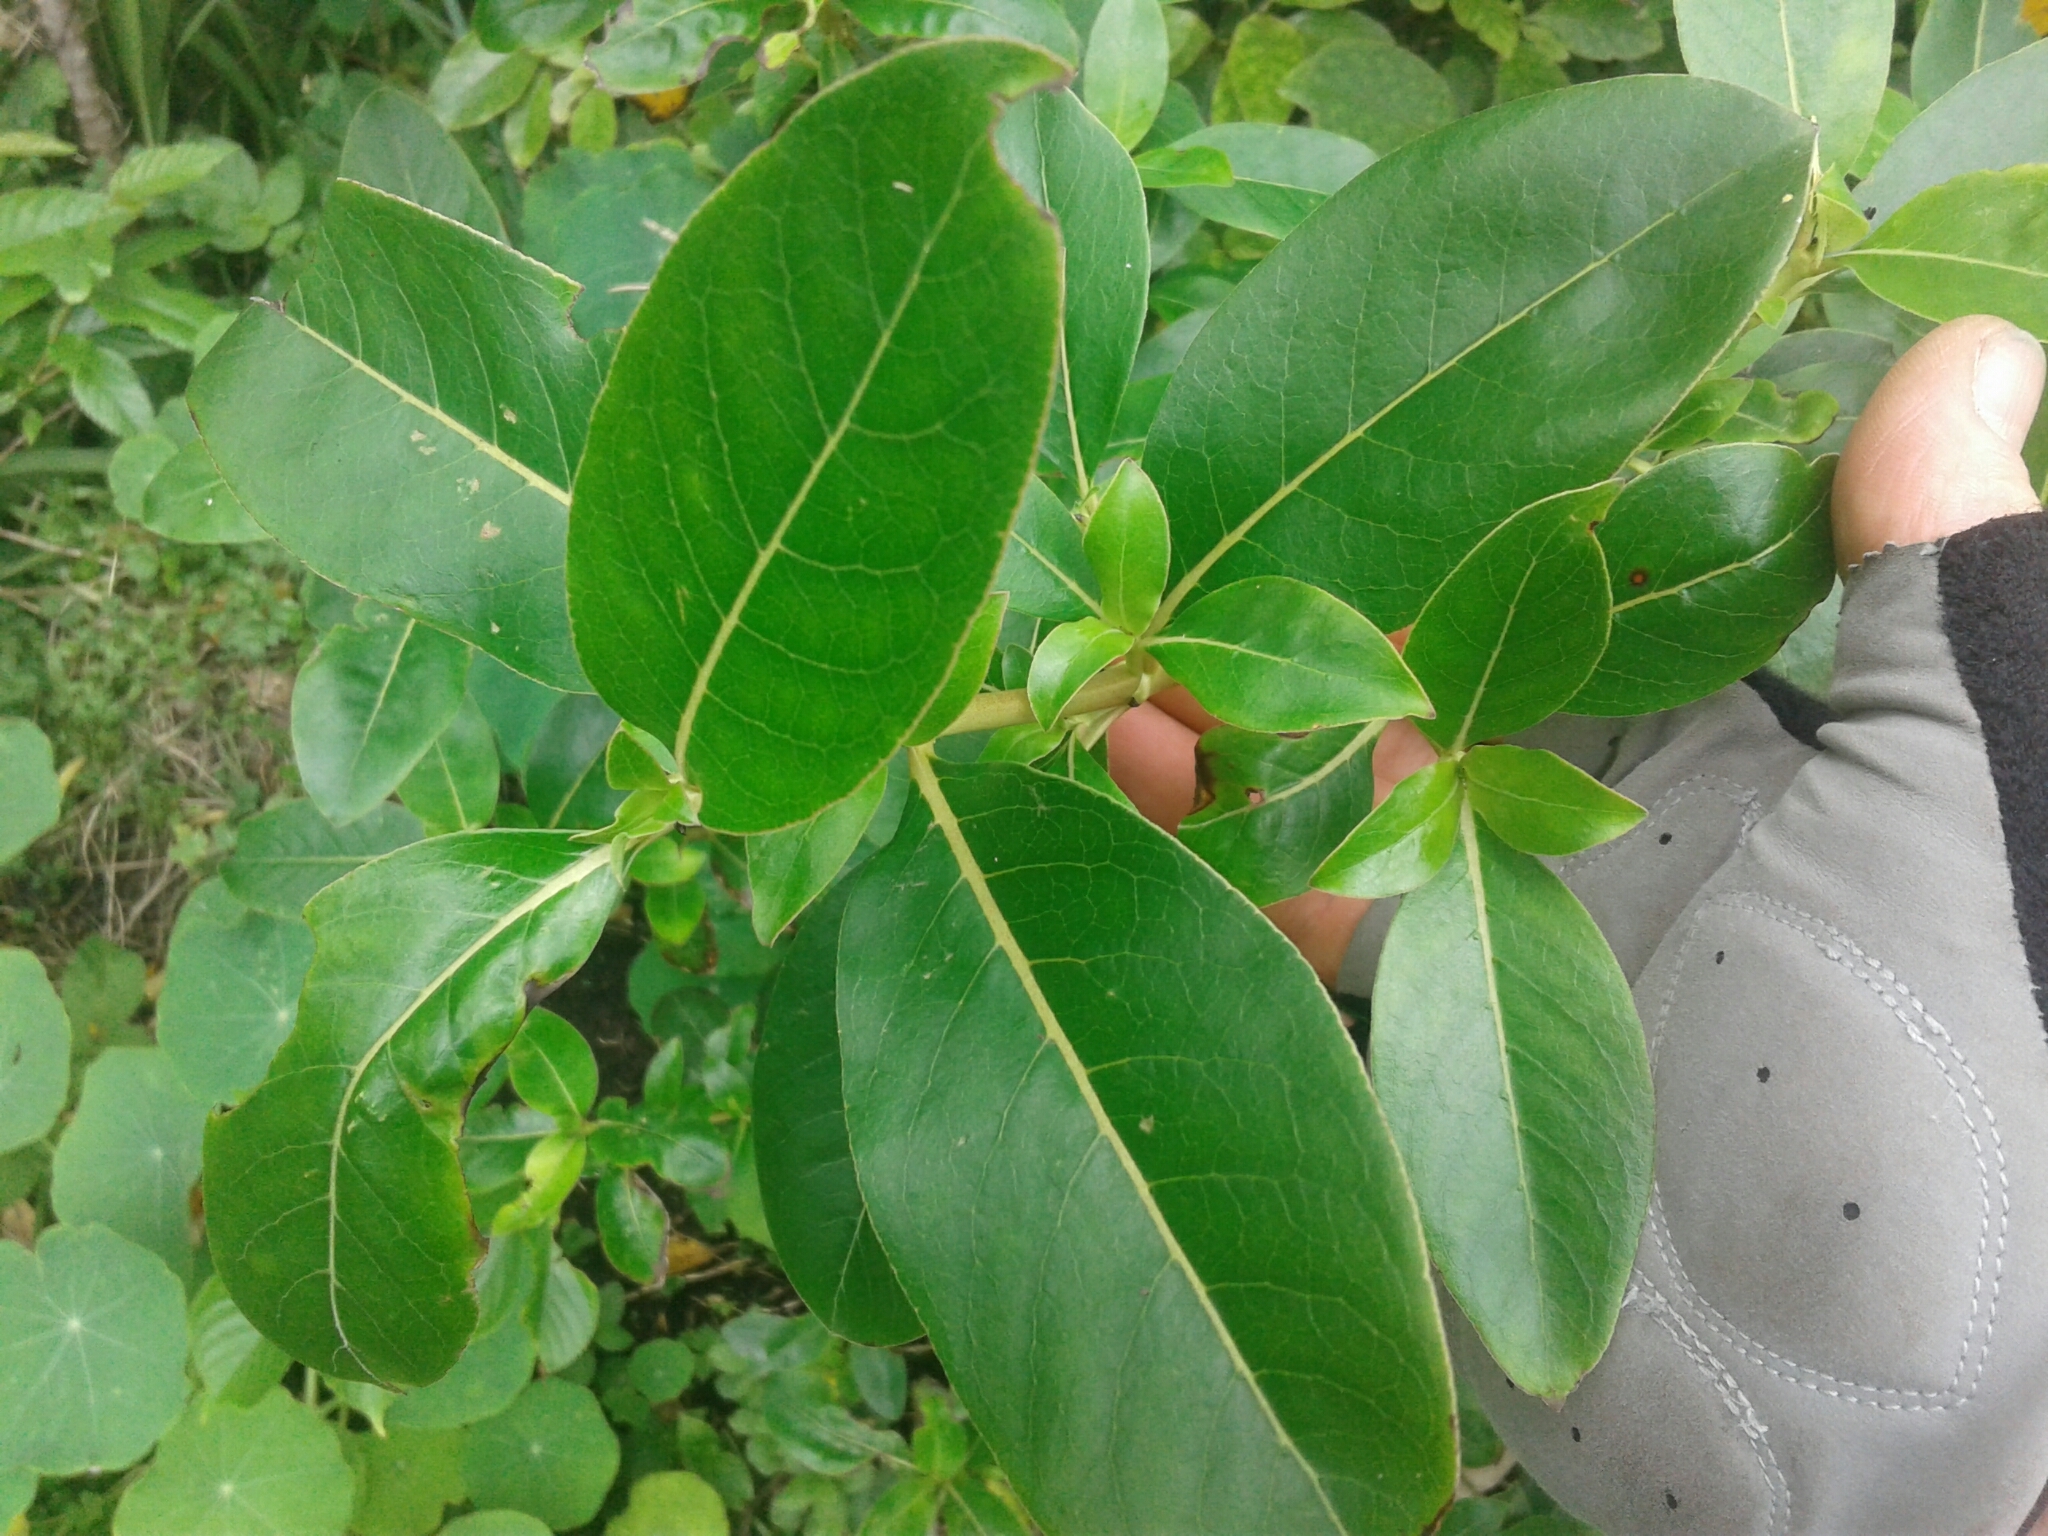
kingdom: Plantae
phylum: Tracheophyta
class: Magnoliopsida
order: Gentianales
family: Rubiaceae
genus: Coprosma
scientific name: Coprosma robusta
